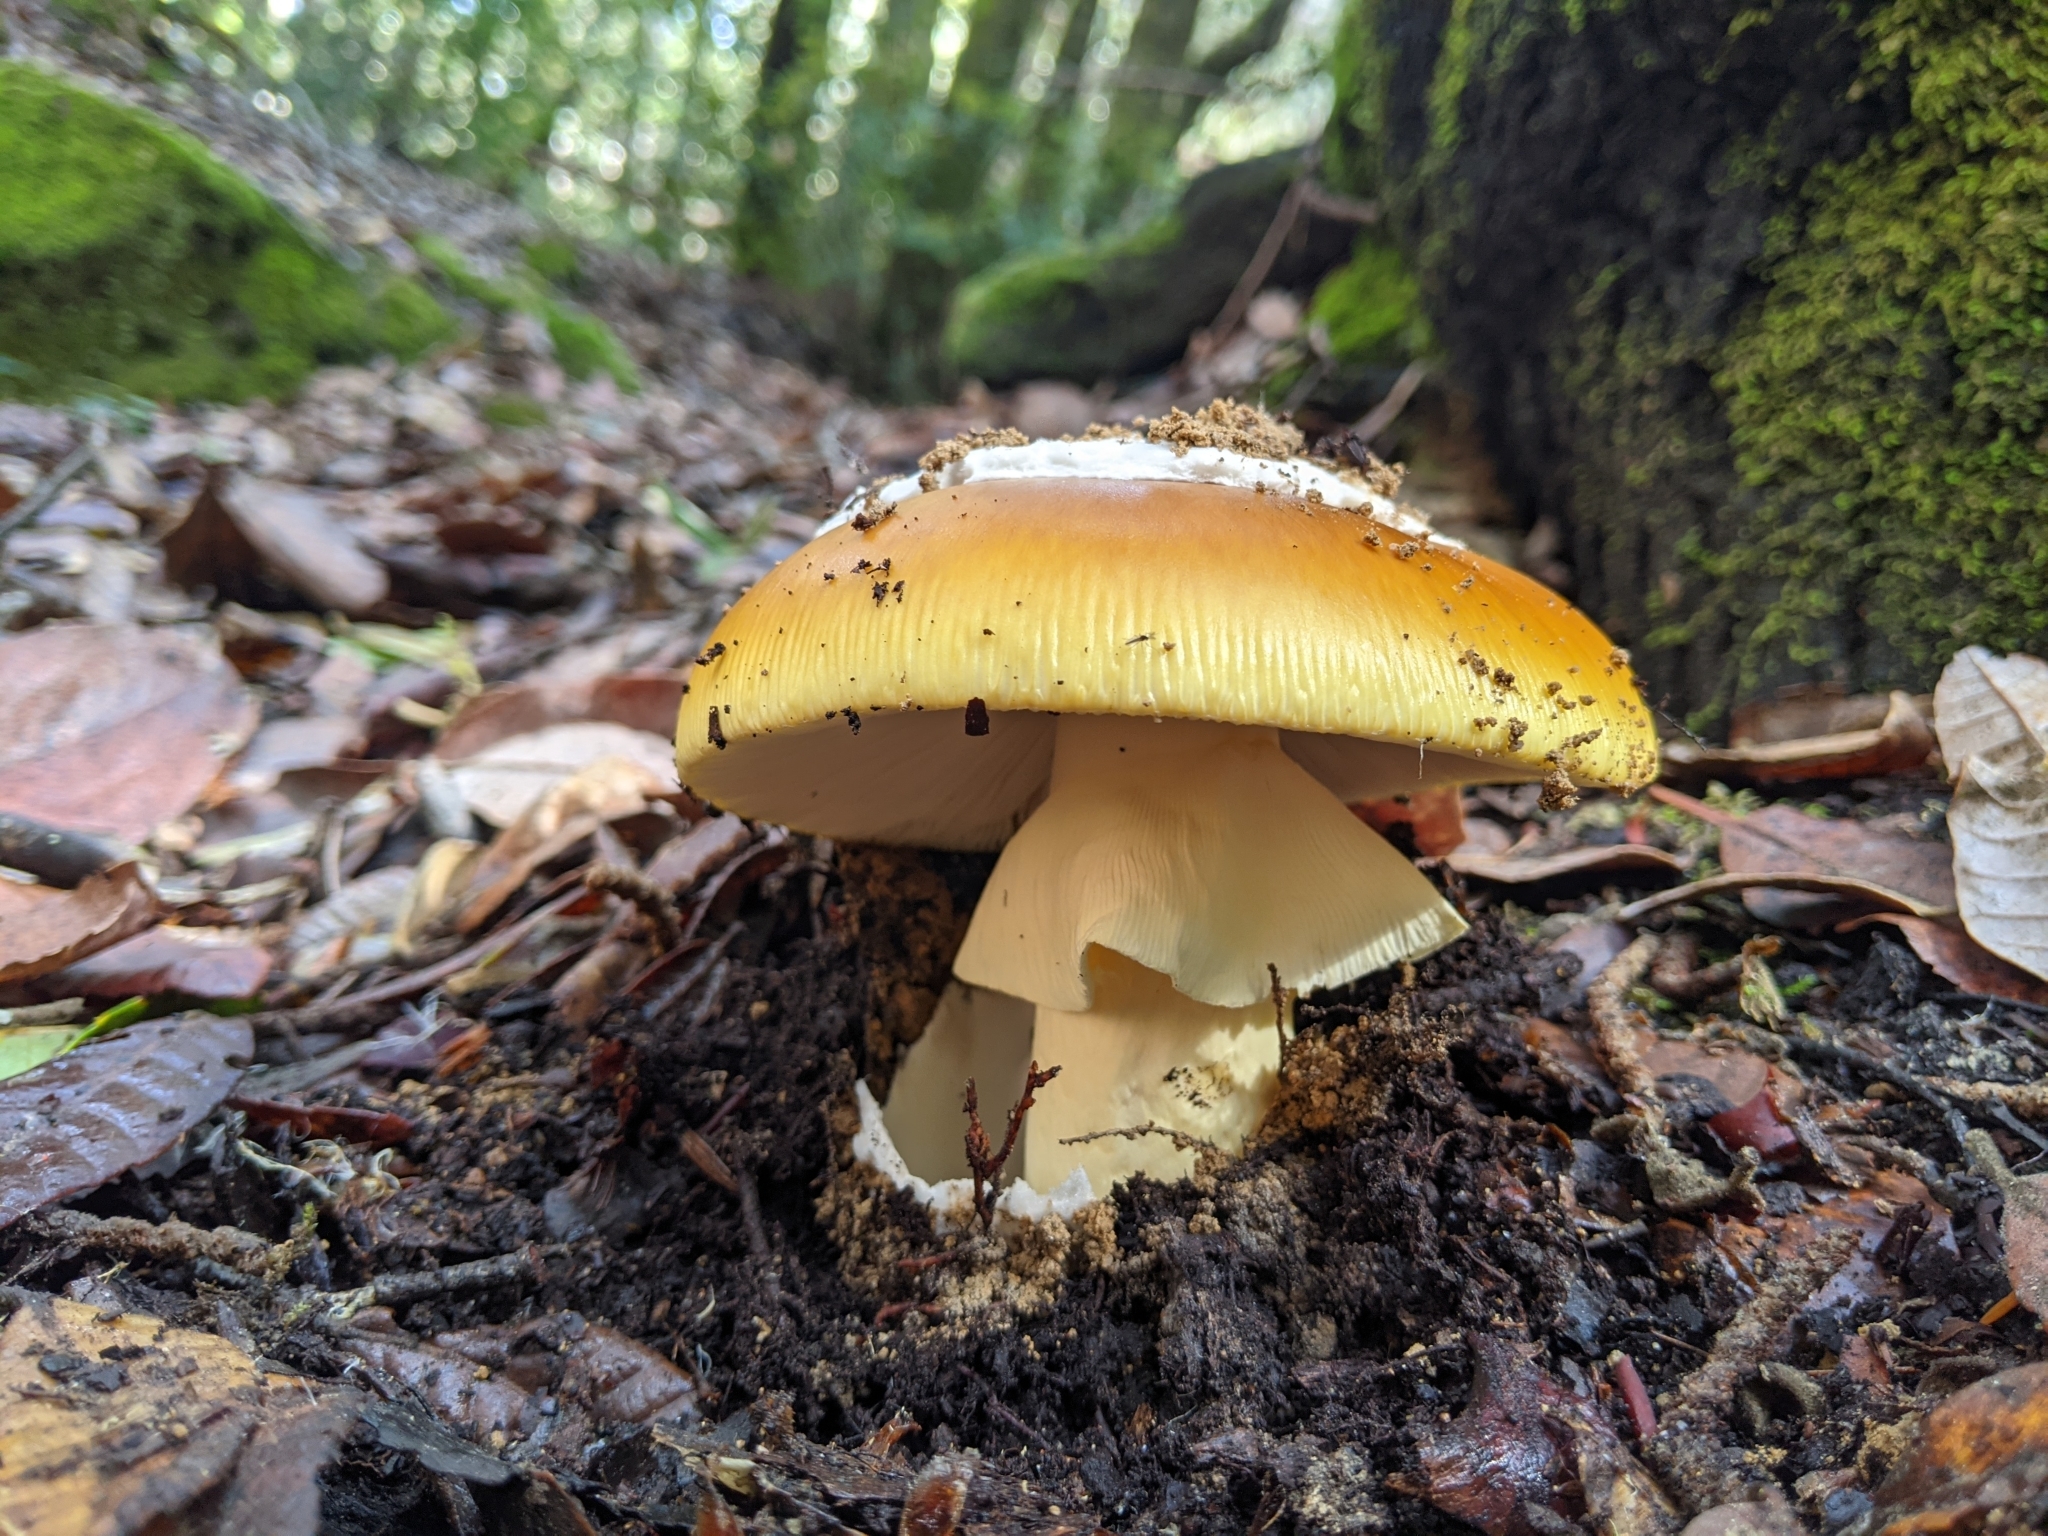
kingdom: Fungi
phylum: Basidiomycota
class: Agaricomycetes
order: Agaricales
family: Amanitaceae
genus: Amanita
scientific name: Amanita calyptroderma
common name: Coccora
